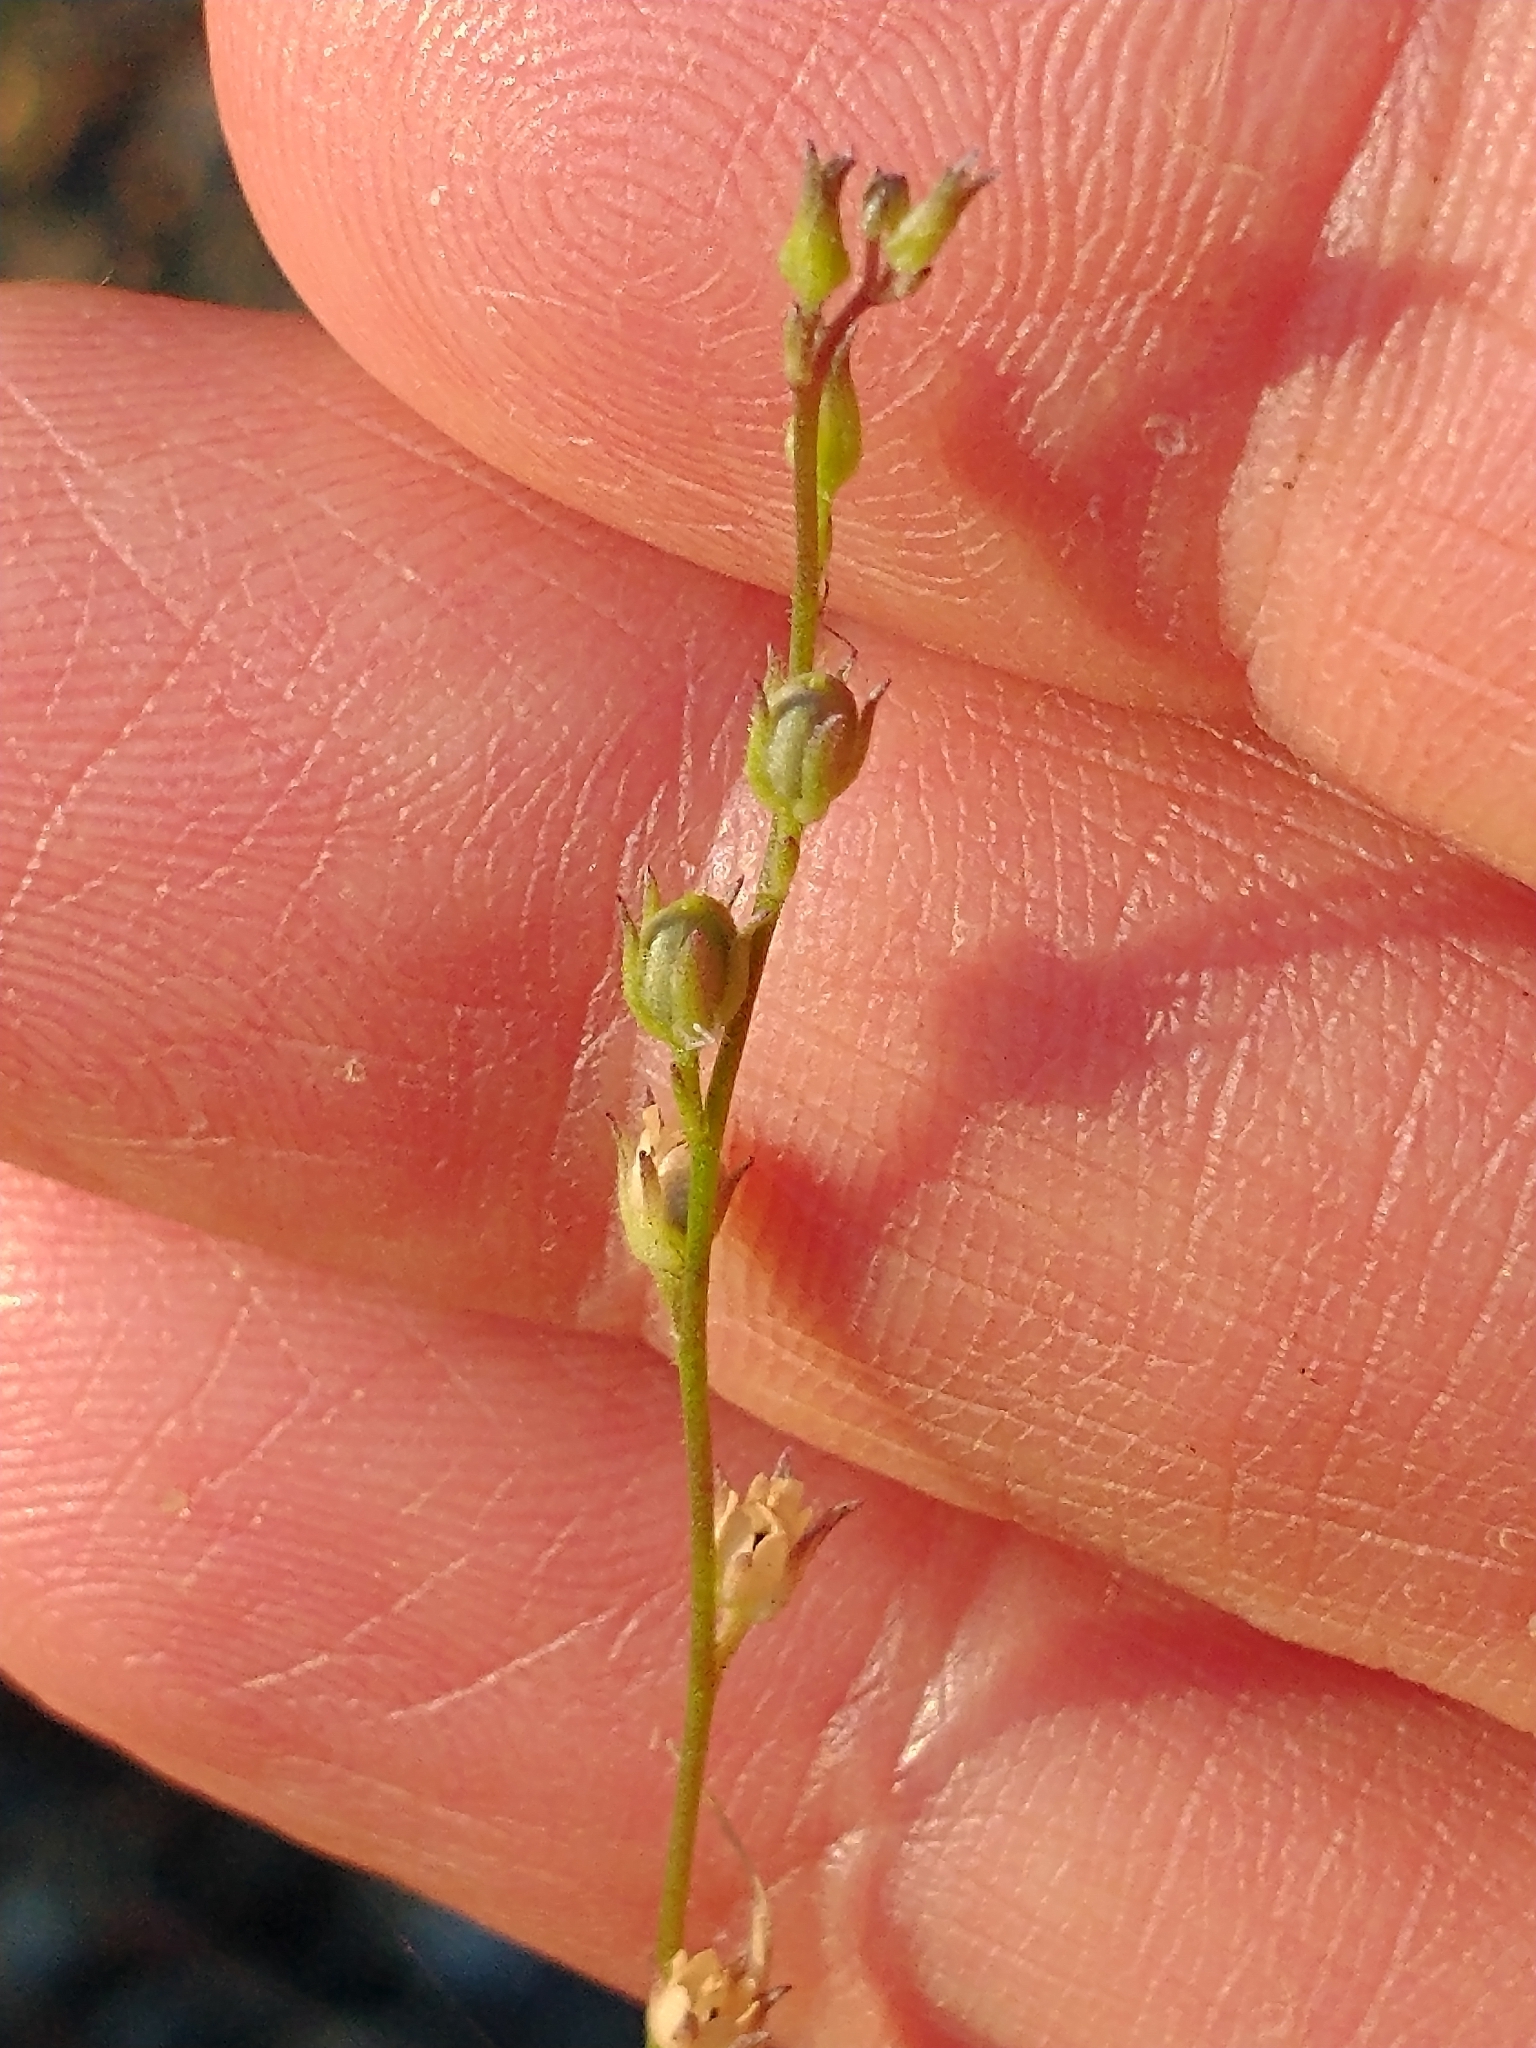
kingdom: Plantae
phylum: Tracheophyta
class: Magnoliopsida
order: Lamiales
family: Plantaginaceae
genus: Nuttallanthus
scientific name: Nuttallanthus canadensis
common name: Blue toadflax
